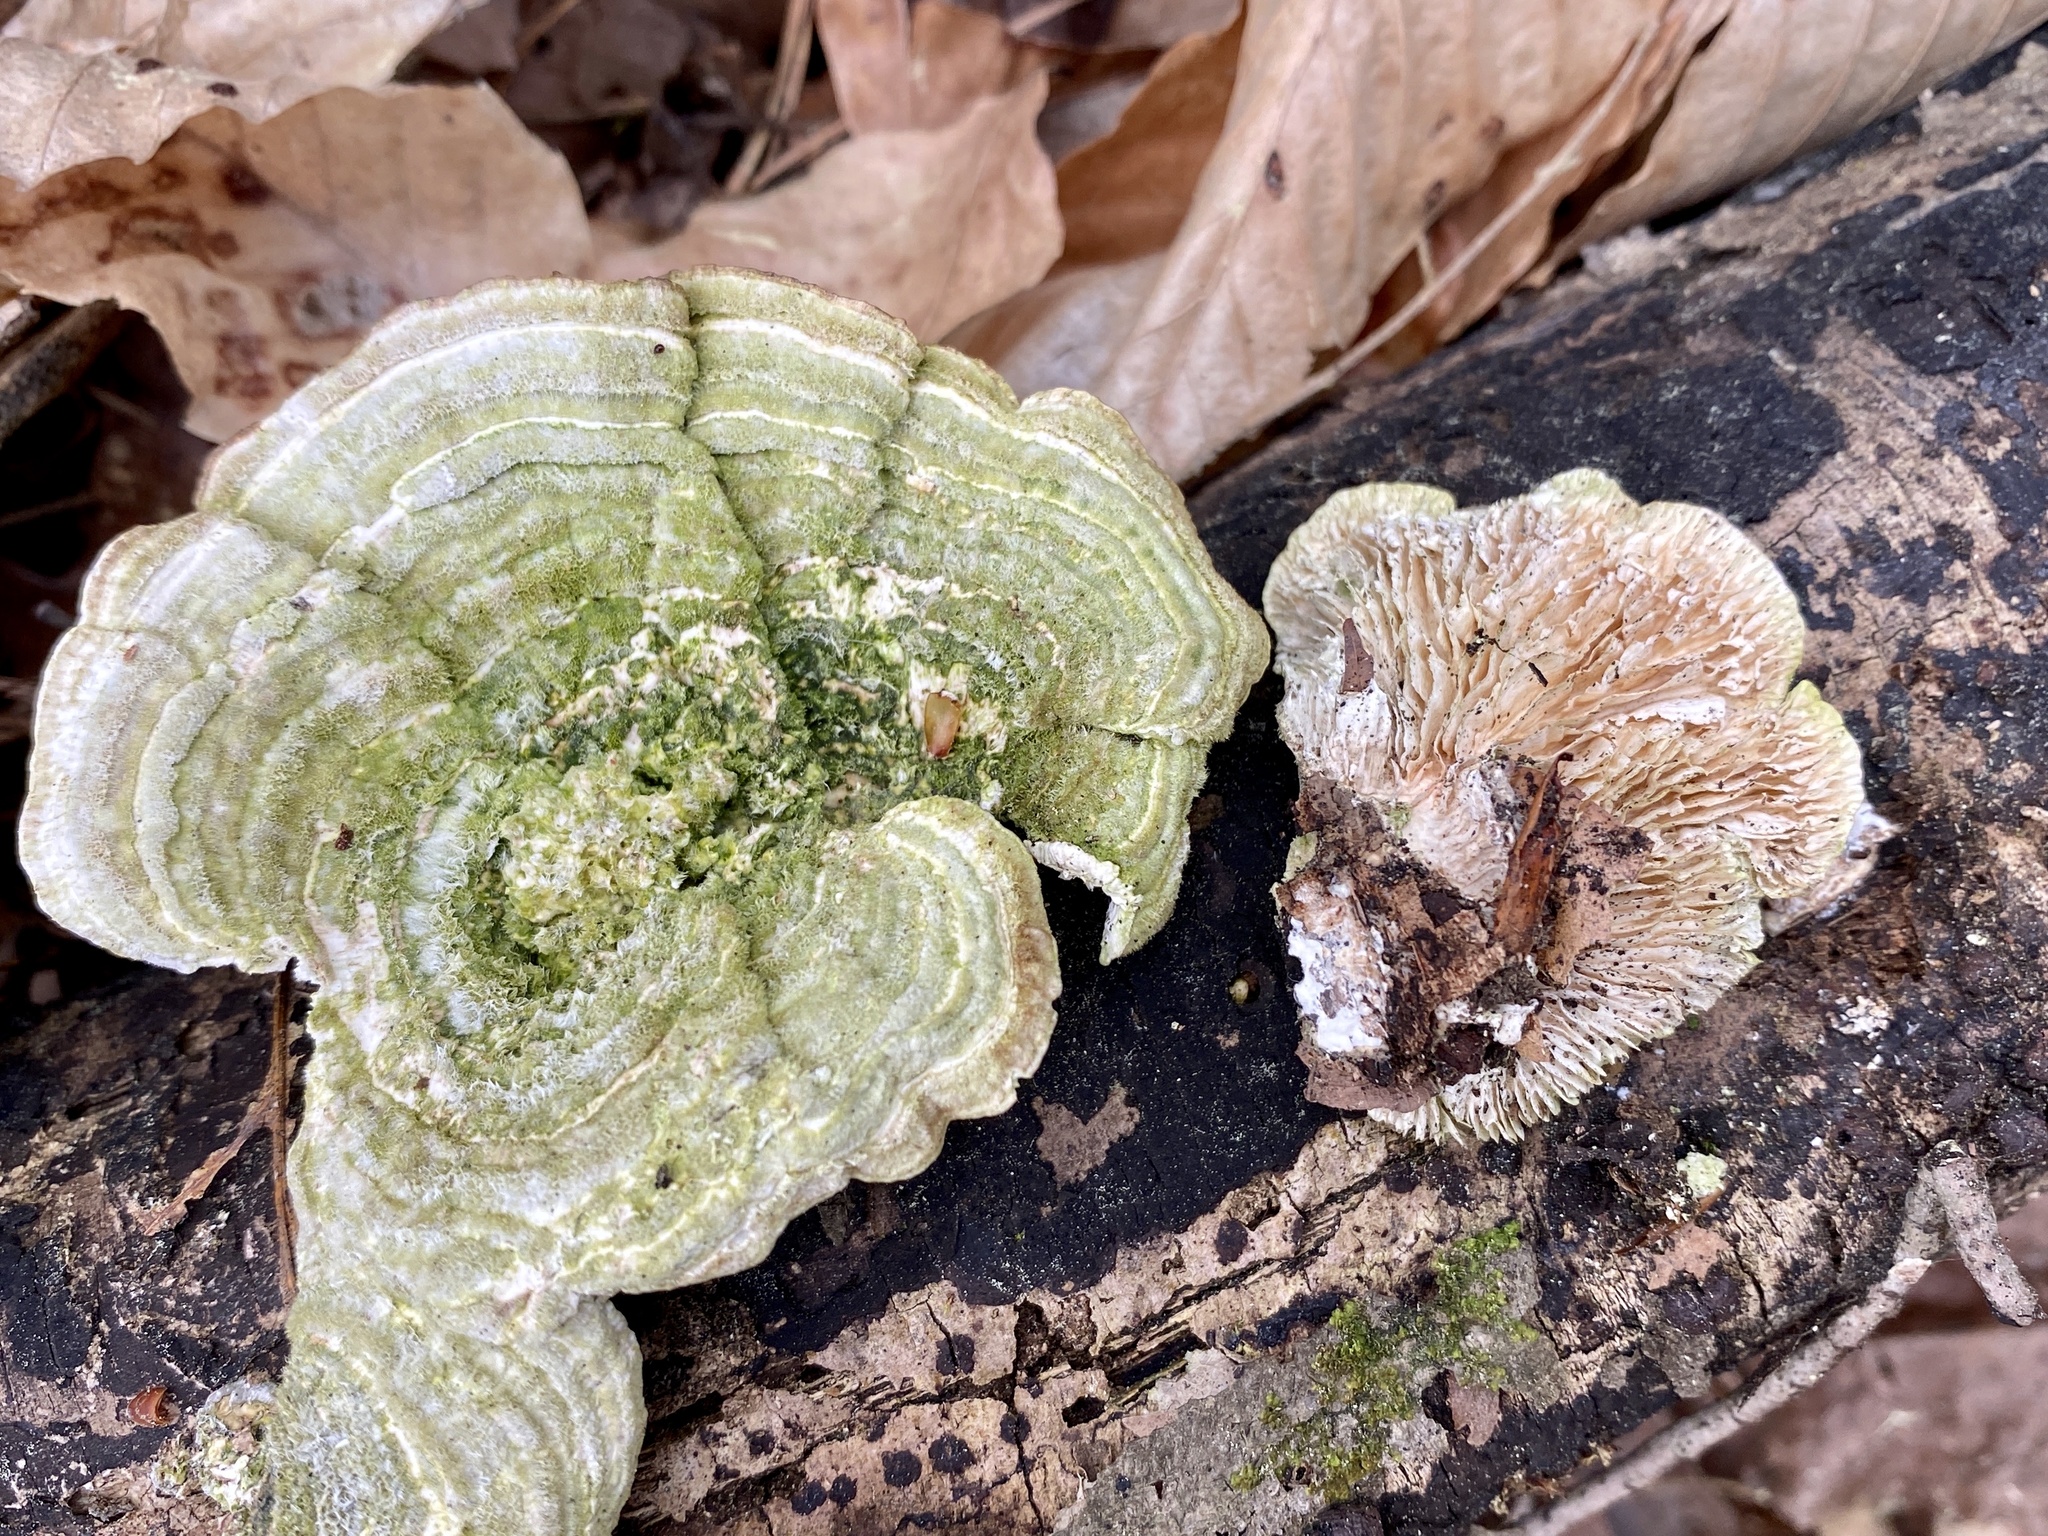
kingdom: Fungi
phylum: Basidiomycota
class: Agaricomycetes
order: Polyporales
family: Polyporaceae
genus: Lenzites
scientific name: Lenzites betulinus
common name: Birch mazegill
